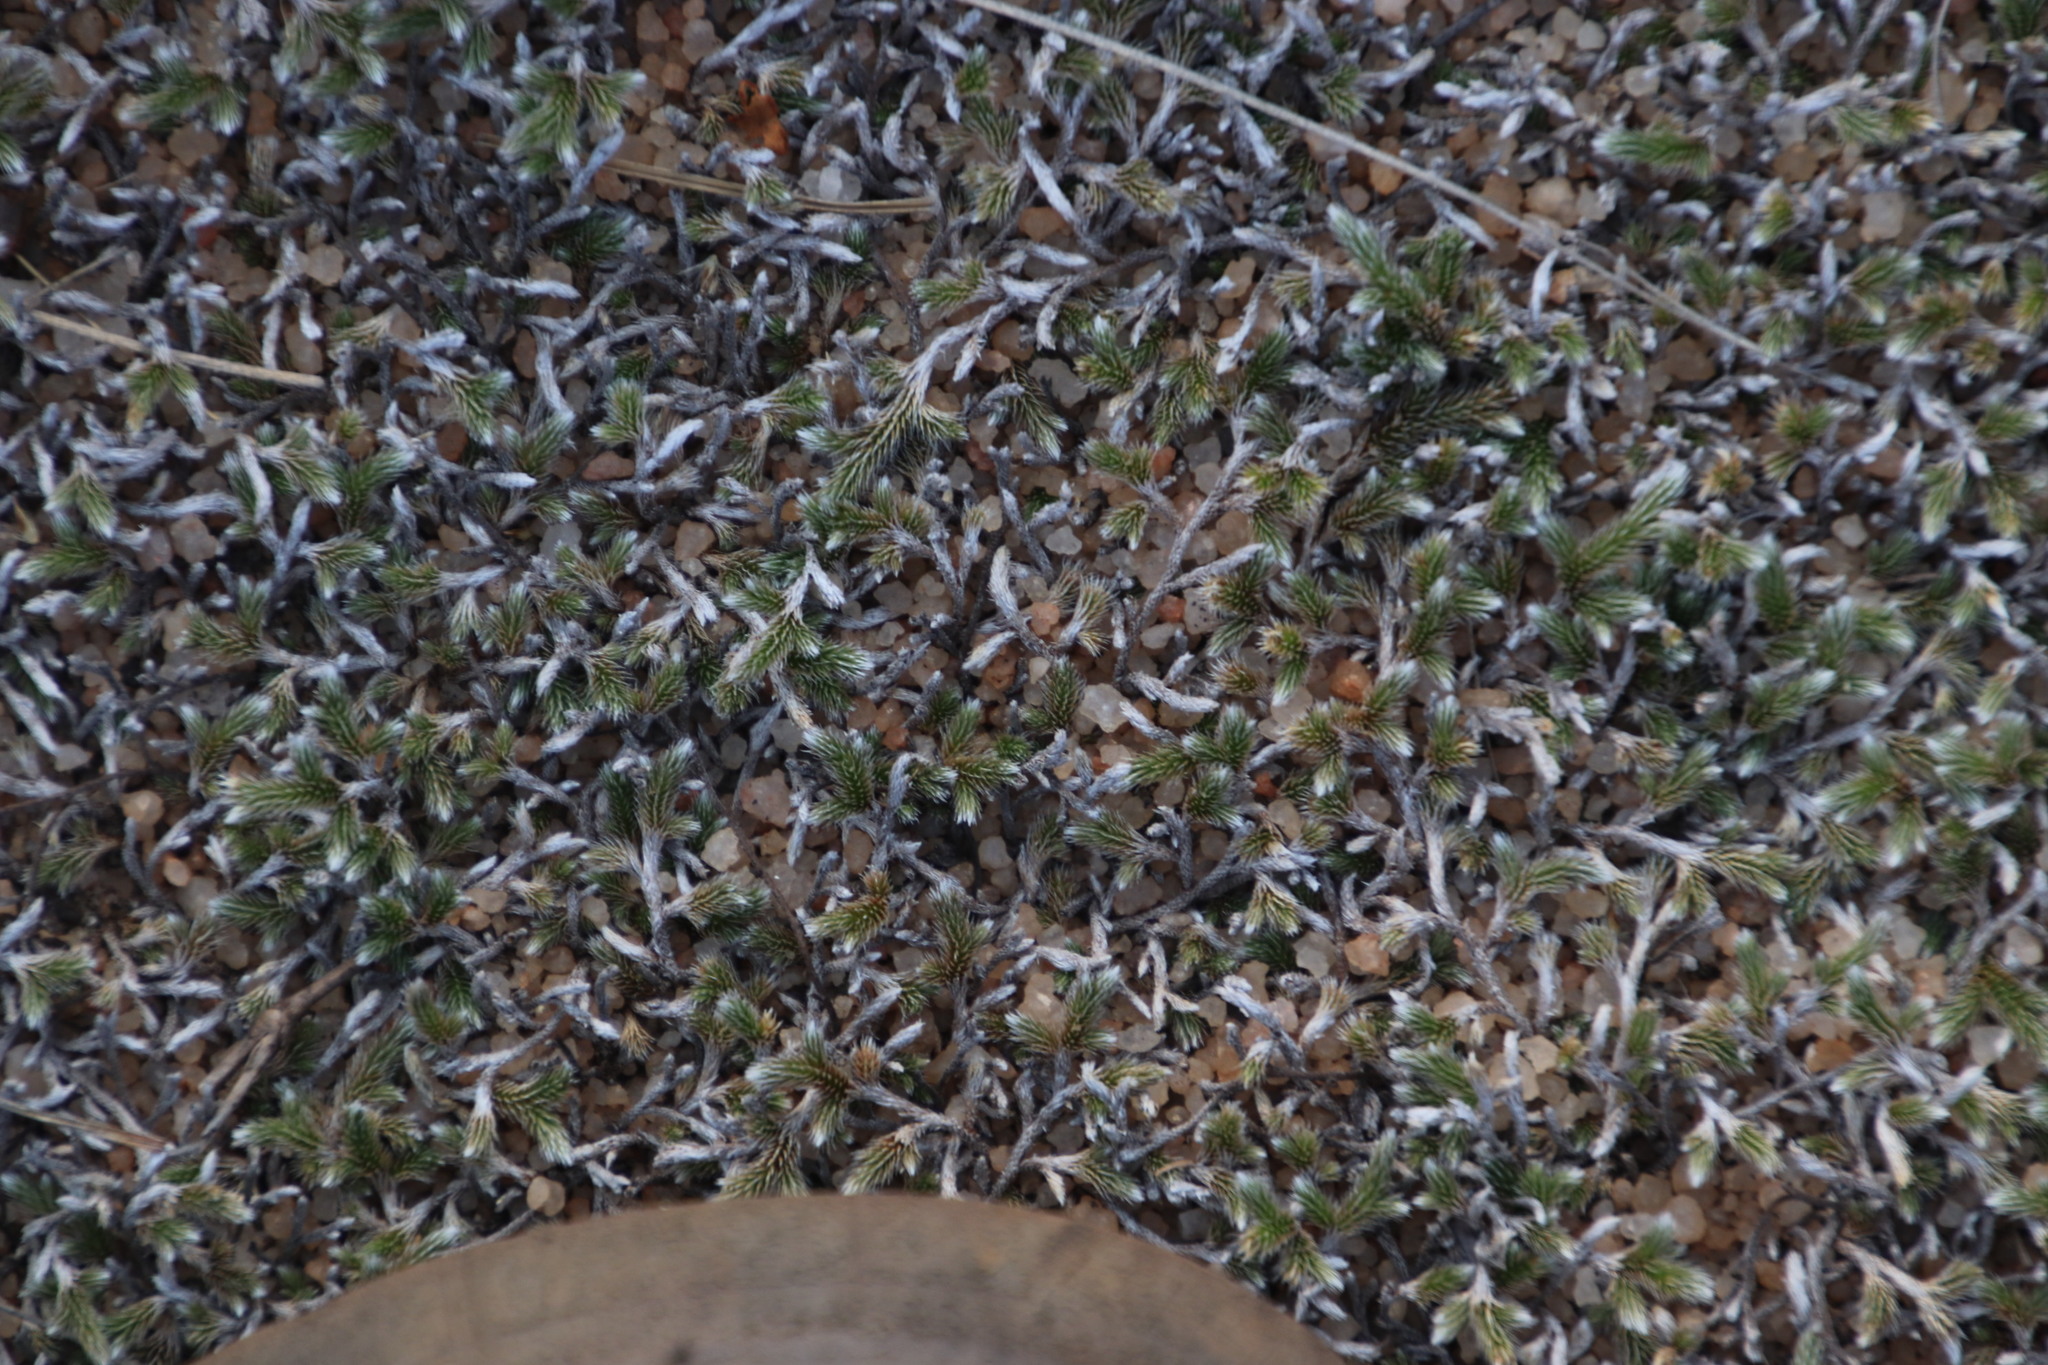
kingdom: Plantae
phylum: Tracheophyta
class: Lycopodiopsida
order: Selaginellales
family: Selaginellaceae
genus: Selaginella
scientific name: Selaginella dregei
